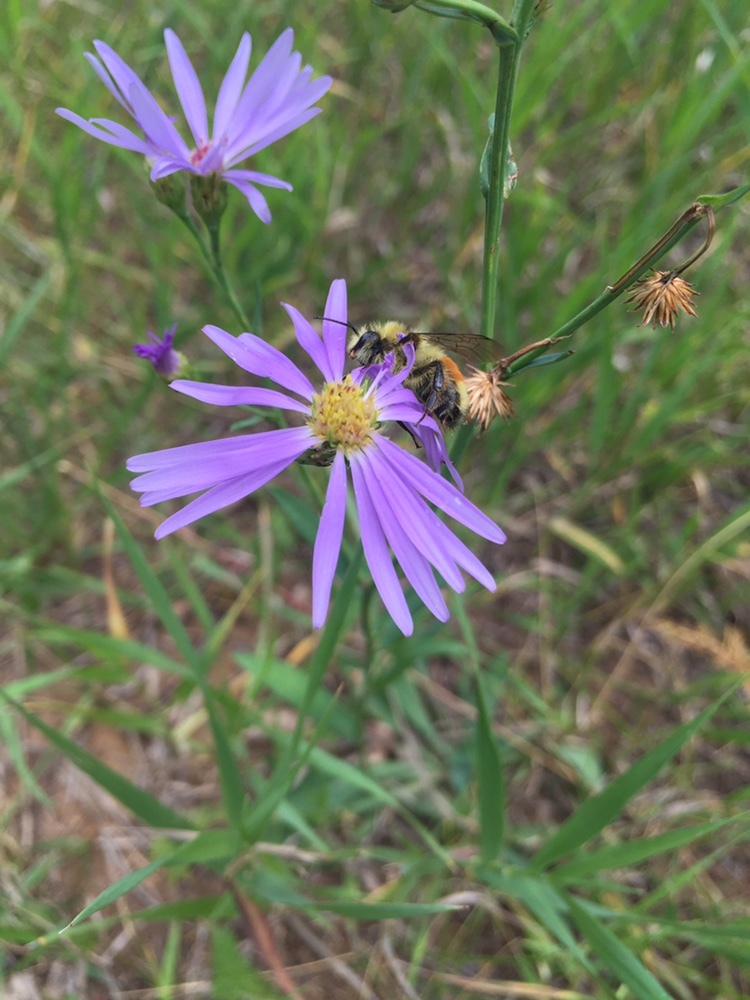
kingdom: Animalia
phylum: Arthropoda
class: Insecta
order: Hymenoptera
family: Apidae
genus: Pyrobombus
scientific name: Pyrobombus
